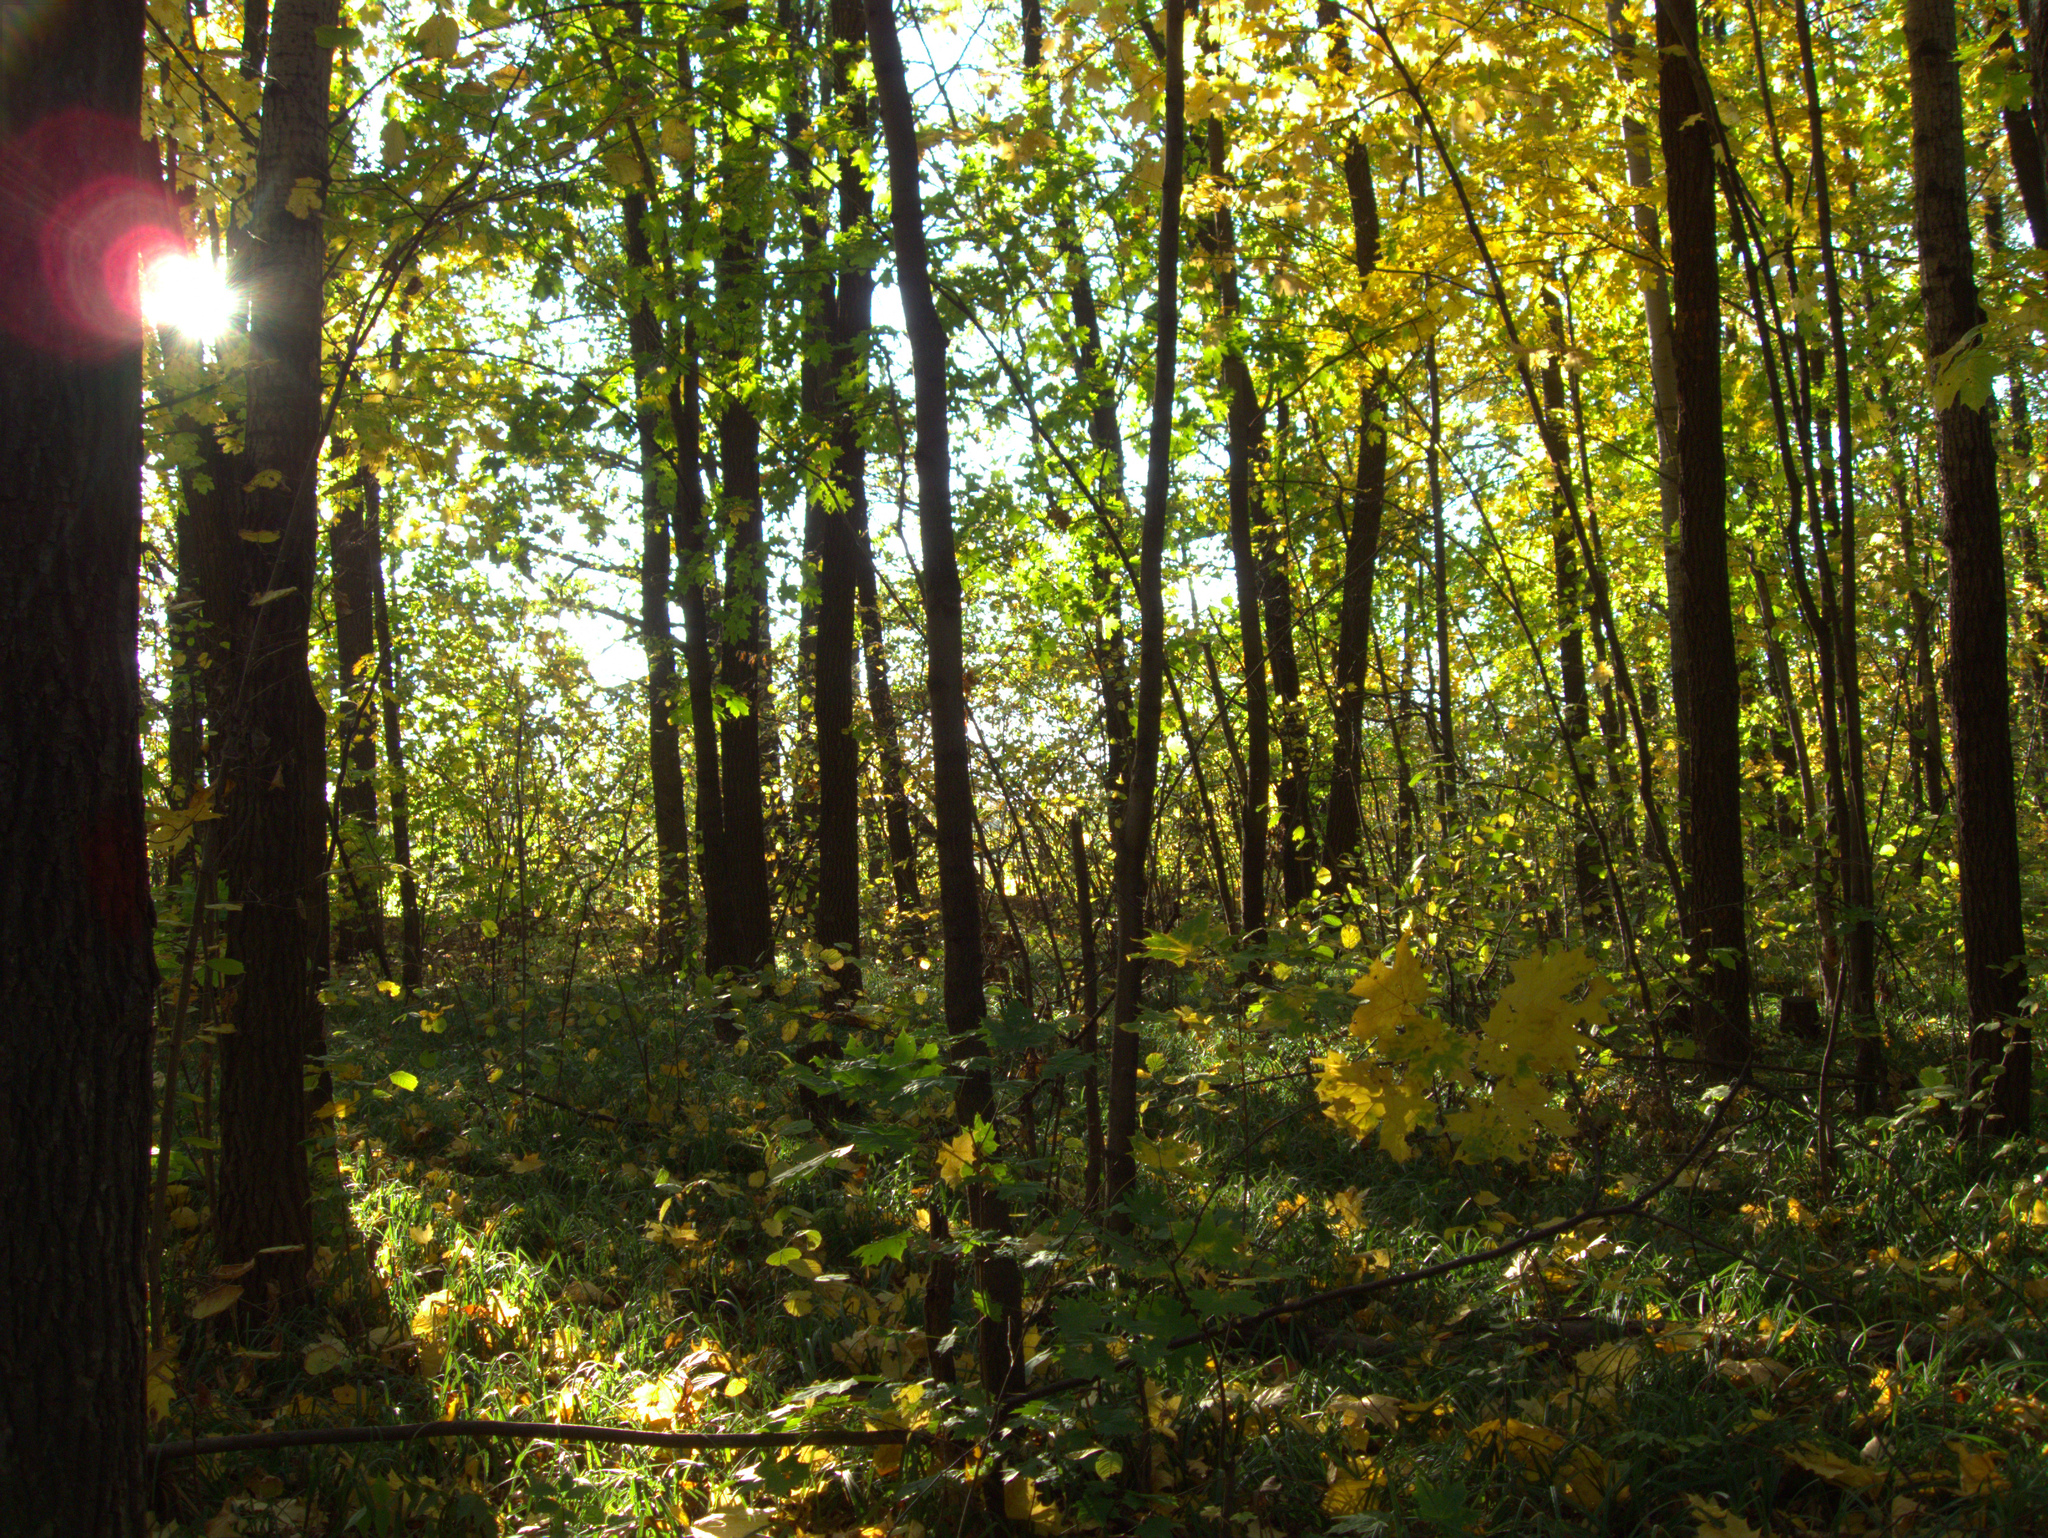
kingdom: Plantae
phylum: Tracheophyta
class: Magnoliopsida
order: Sapindales
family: Sapindaceae
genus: Acer
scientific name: Acer platanoides
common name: Norway maple
